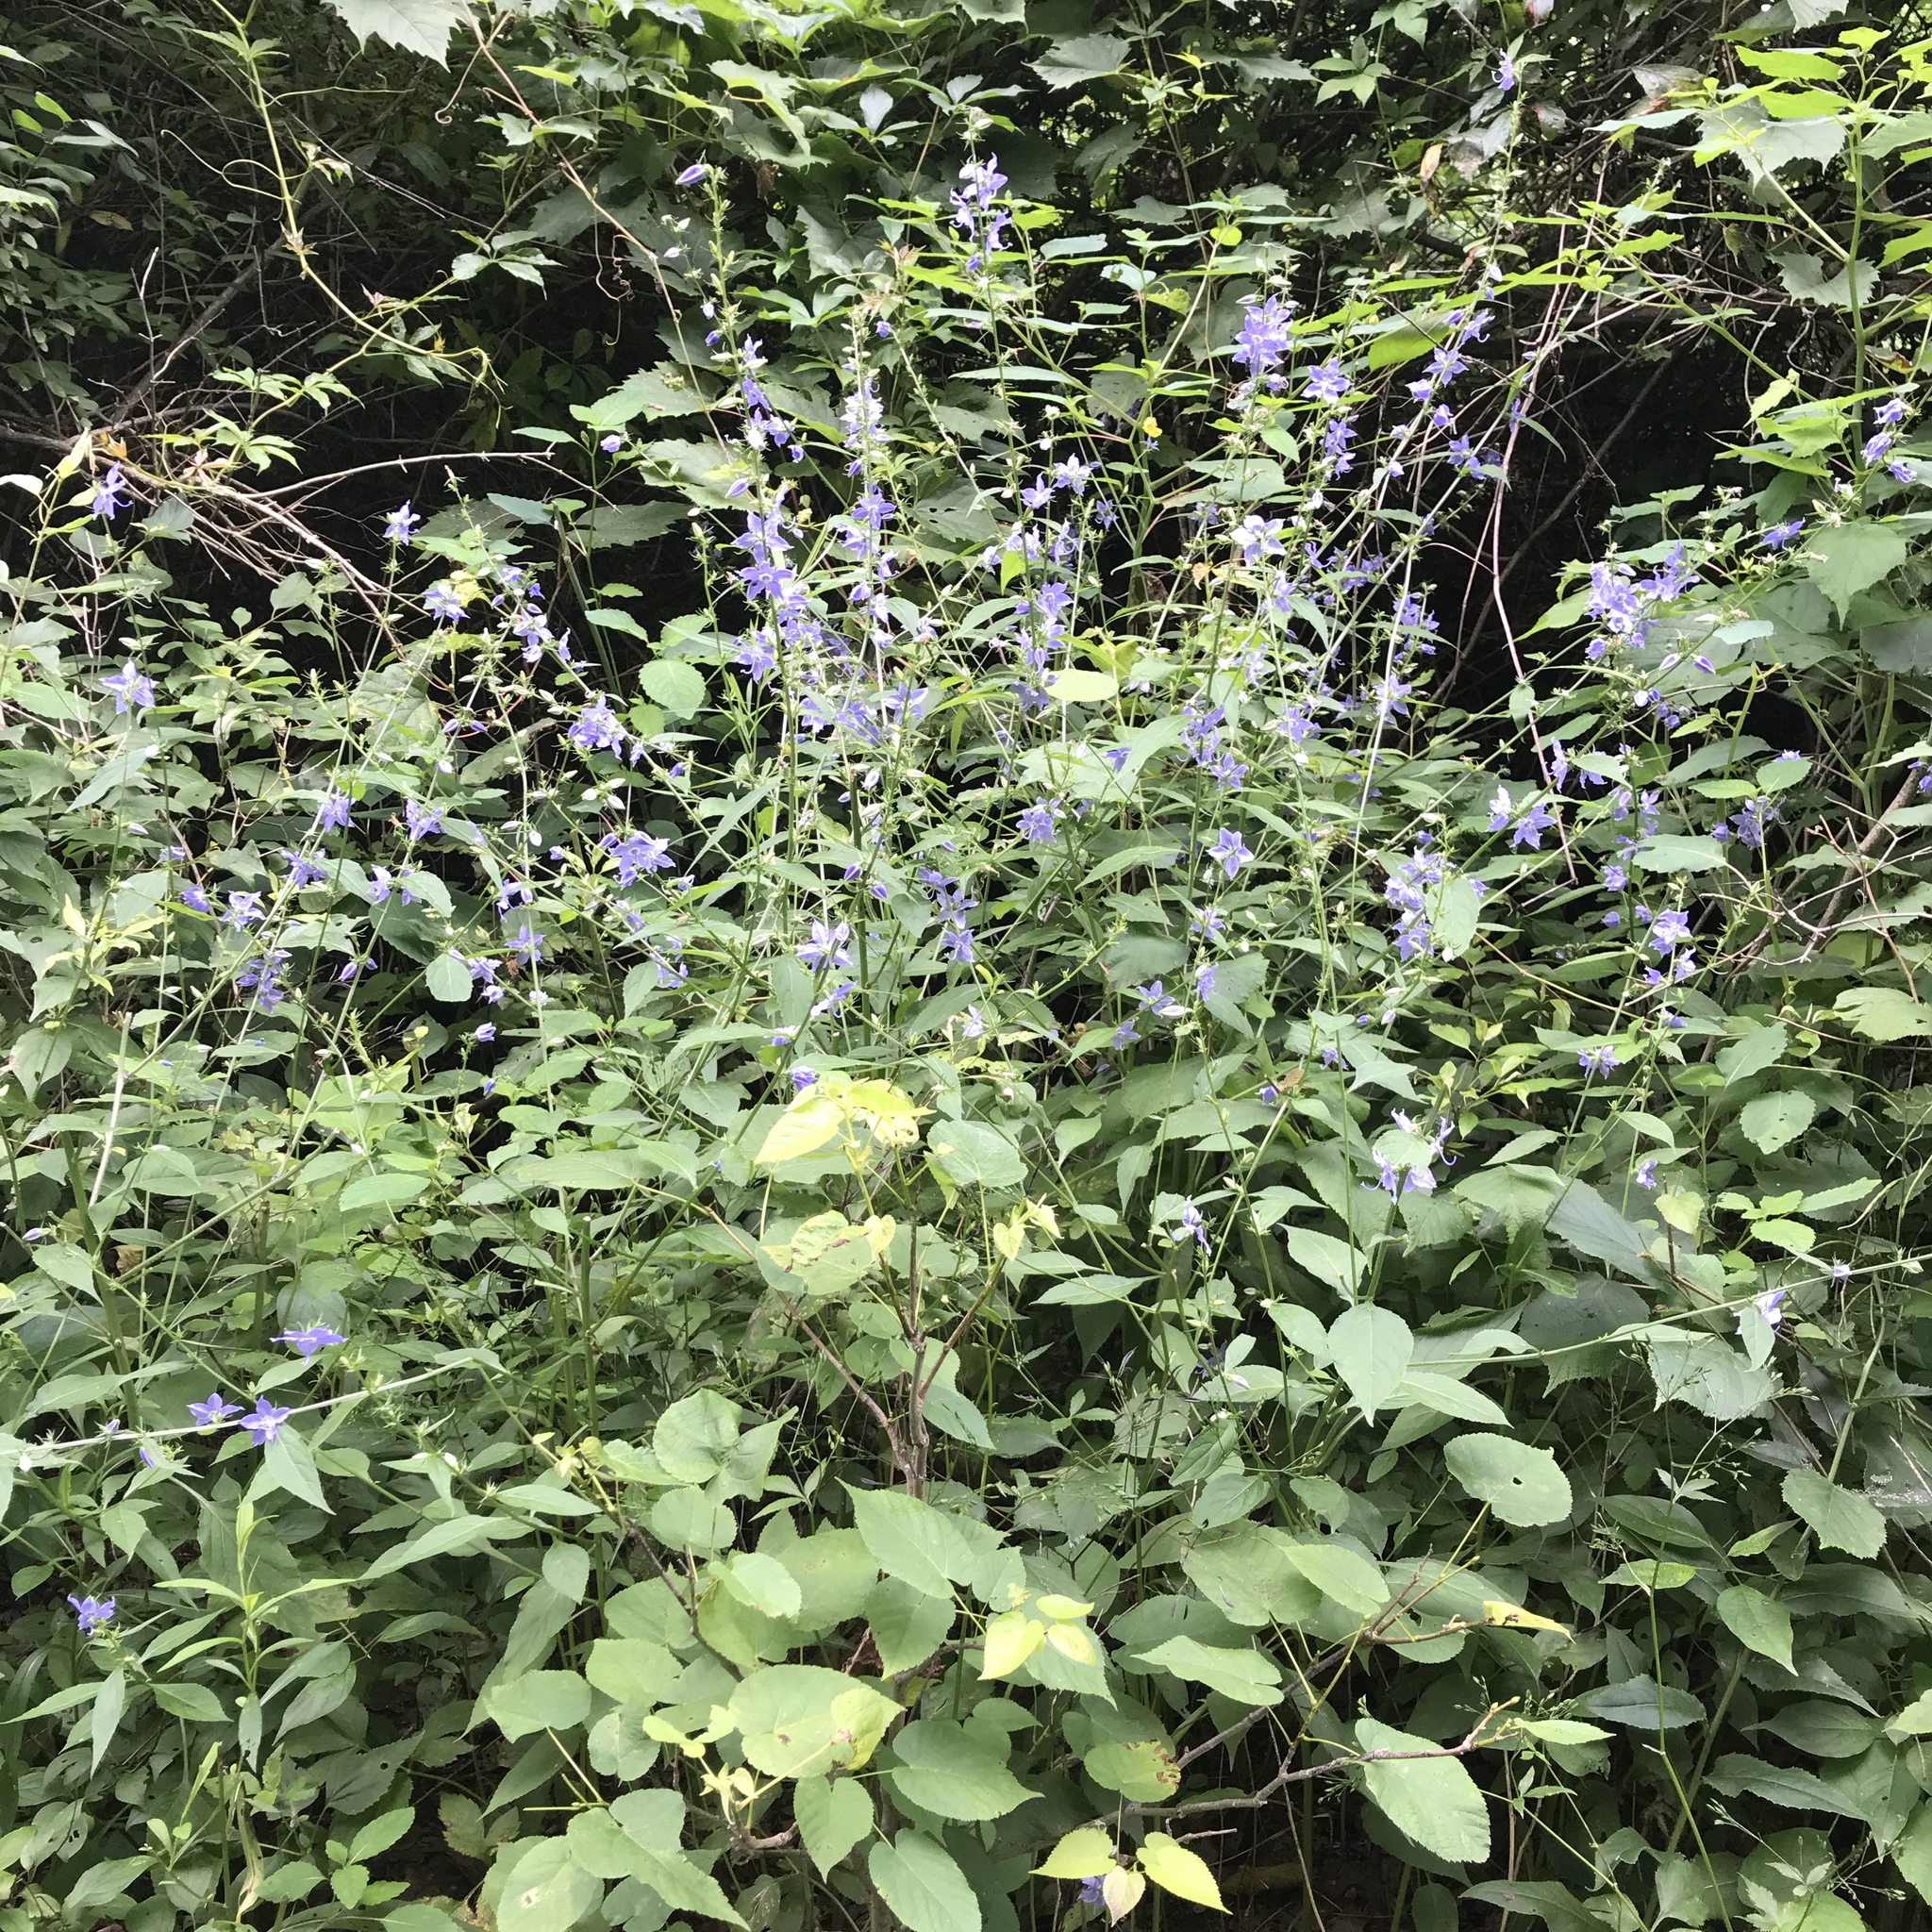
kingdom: Plantae
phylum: Tracheophyta
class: Magnoliopsida
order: Asterales
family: Campanulaceae
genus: Campanulastrum
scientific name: Campanulastrum americanum
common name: American bellflower
